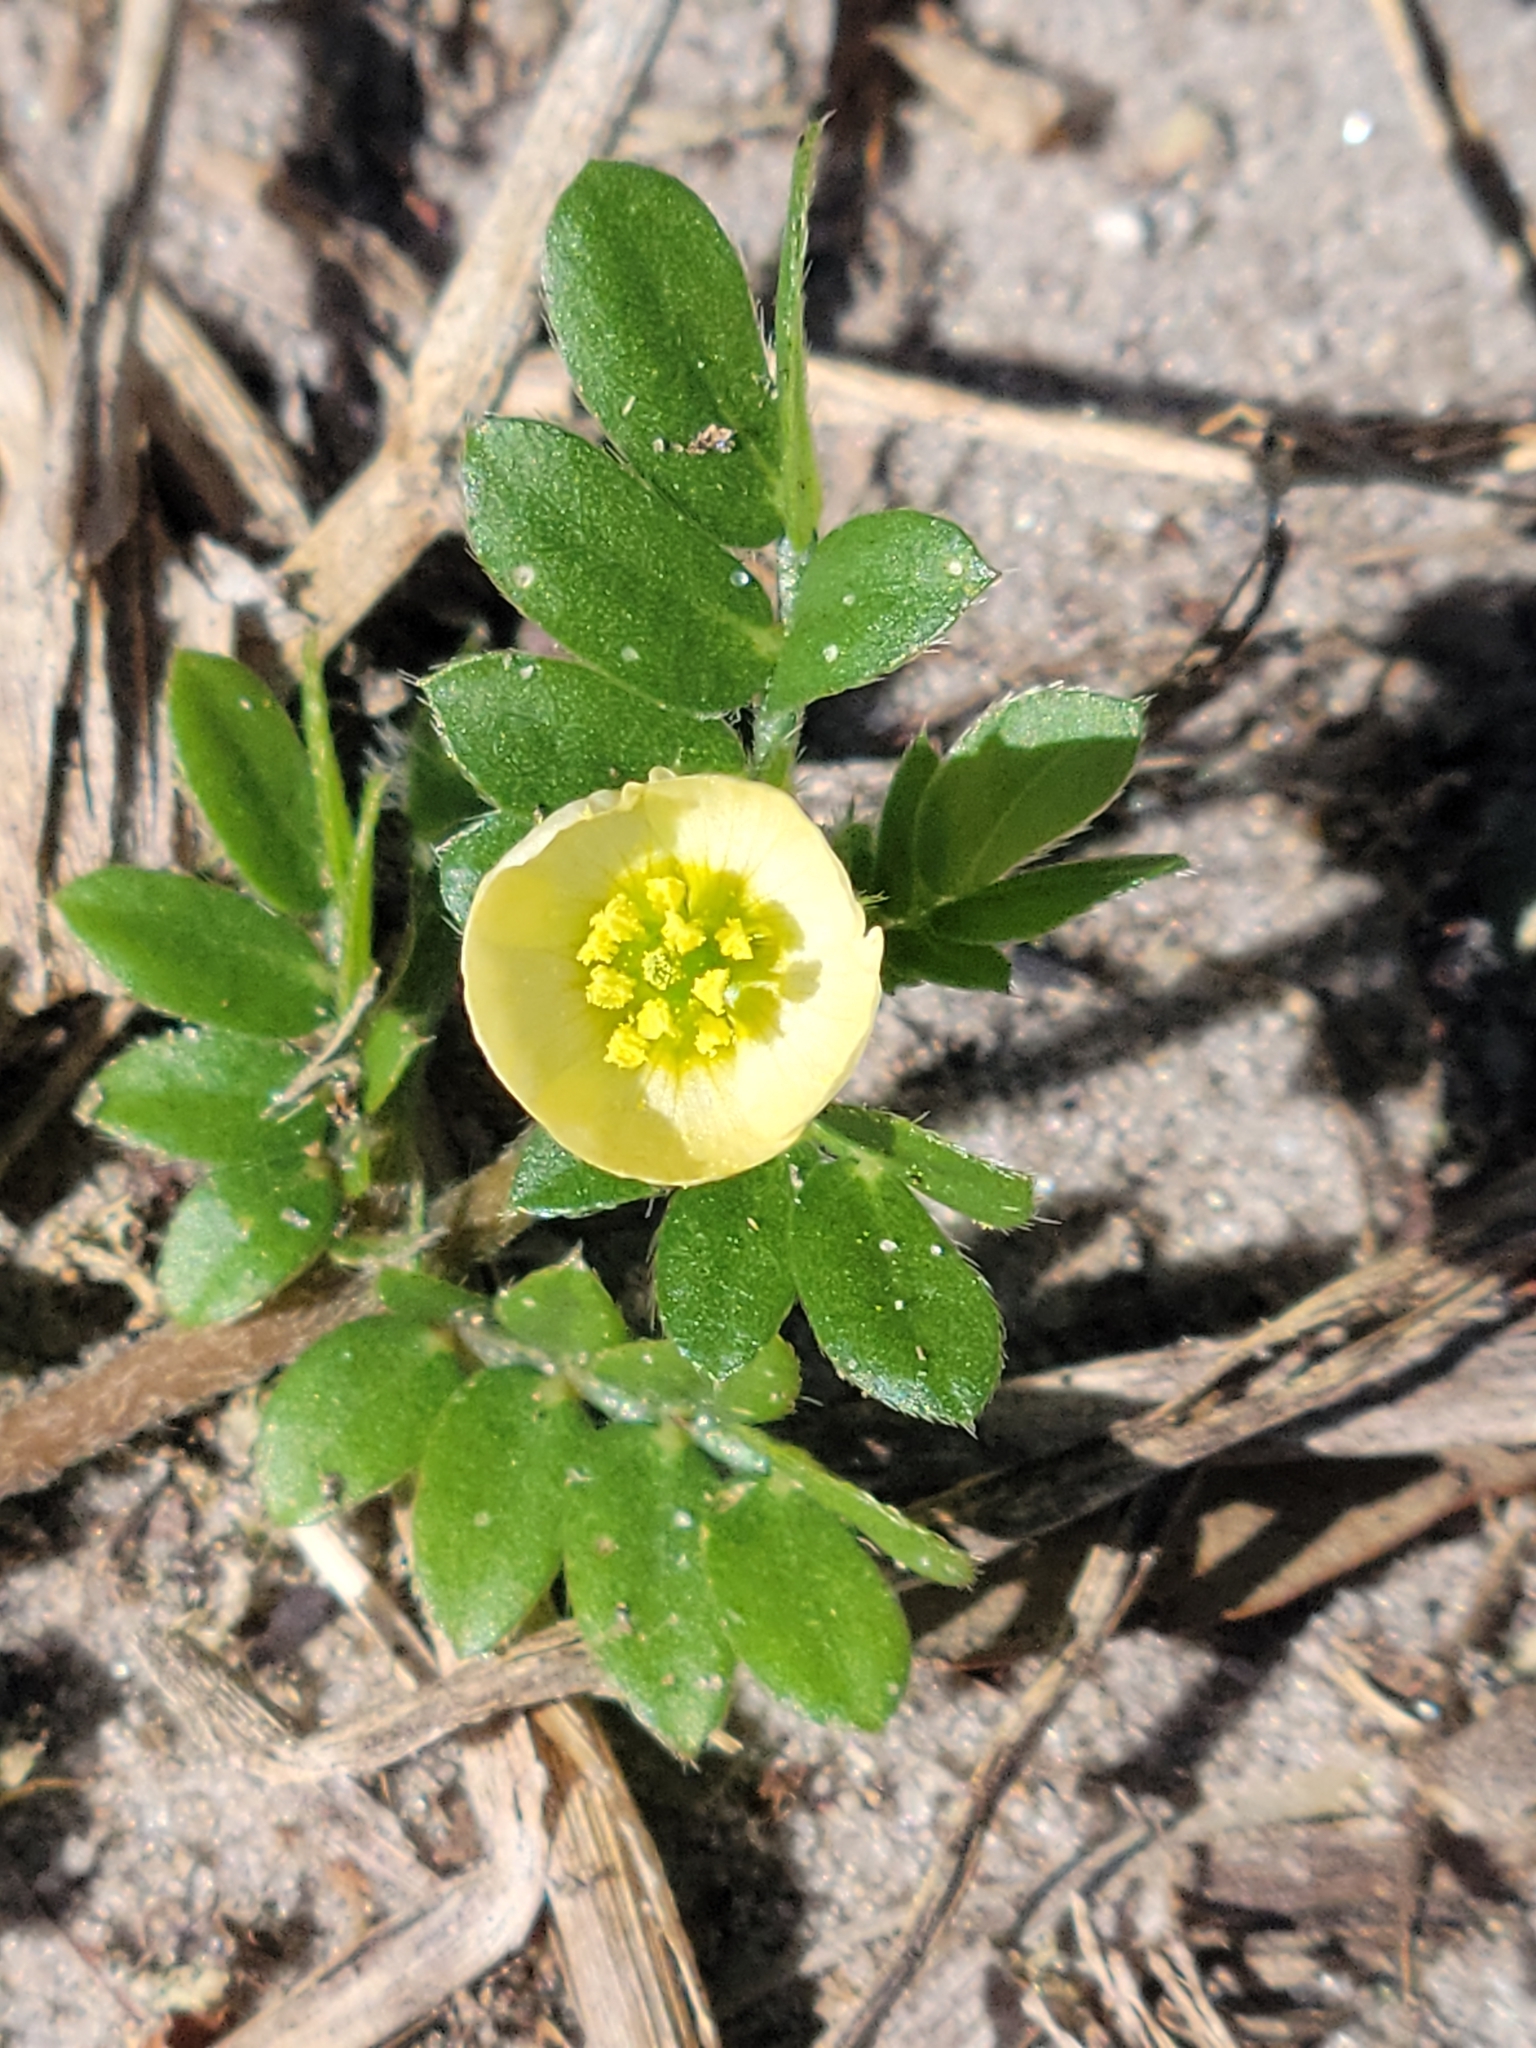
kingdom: Plantae
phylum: Tracheophyta
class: Magnoliopsida
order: Zygophyllales
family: Zygophyllaceae
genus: Kallstroemia
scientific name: Kallstroemia maxima
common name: Big caltropa
